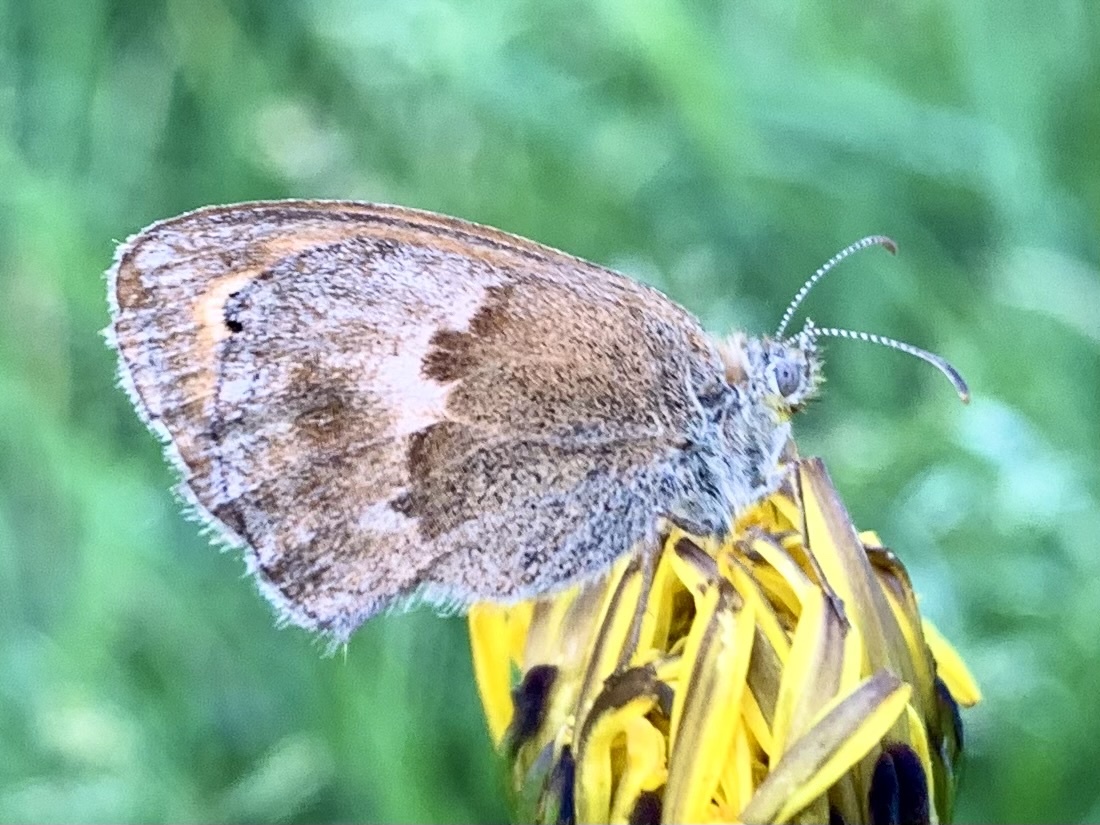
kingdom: Animalia
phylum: Arthropoda
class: Insecta
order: Lepidoptera
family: Nymphalidae
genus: Coenonympha
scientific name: Coenonympha pamphilus
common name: Small heath
